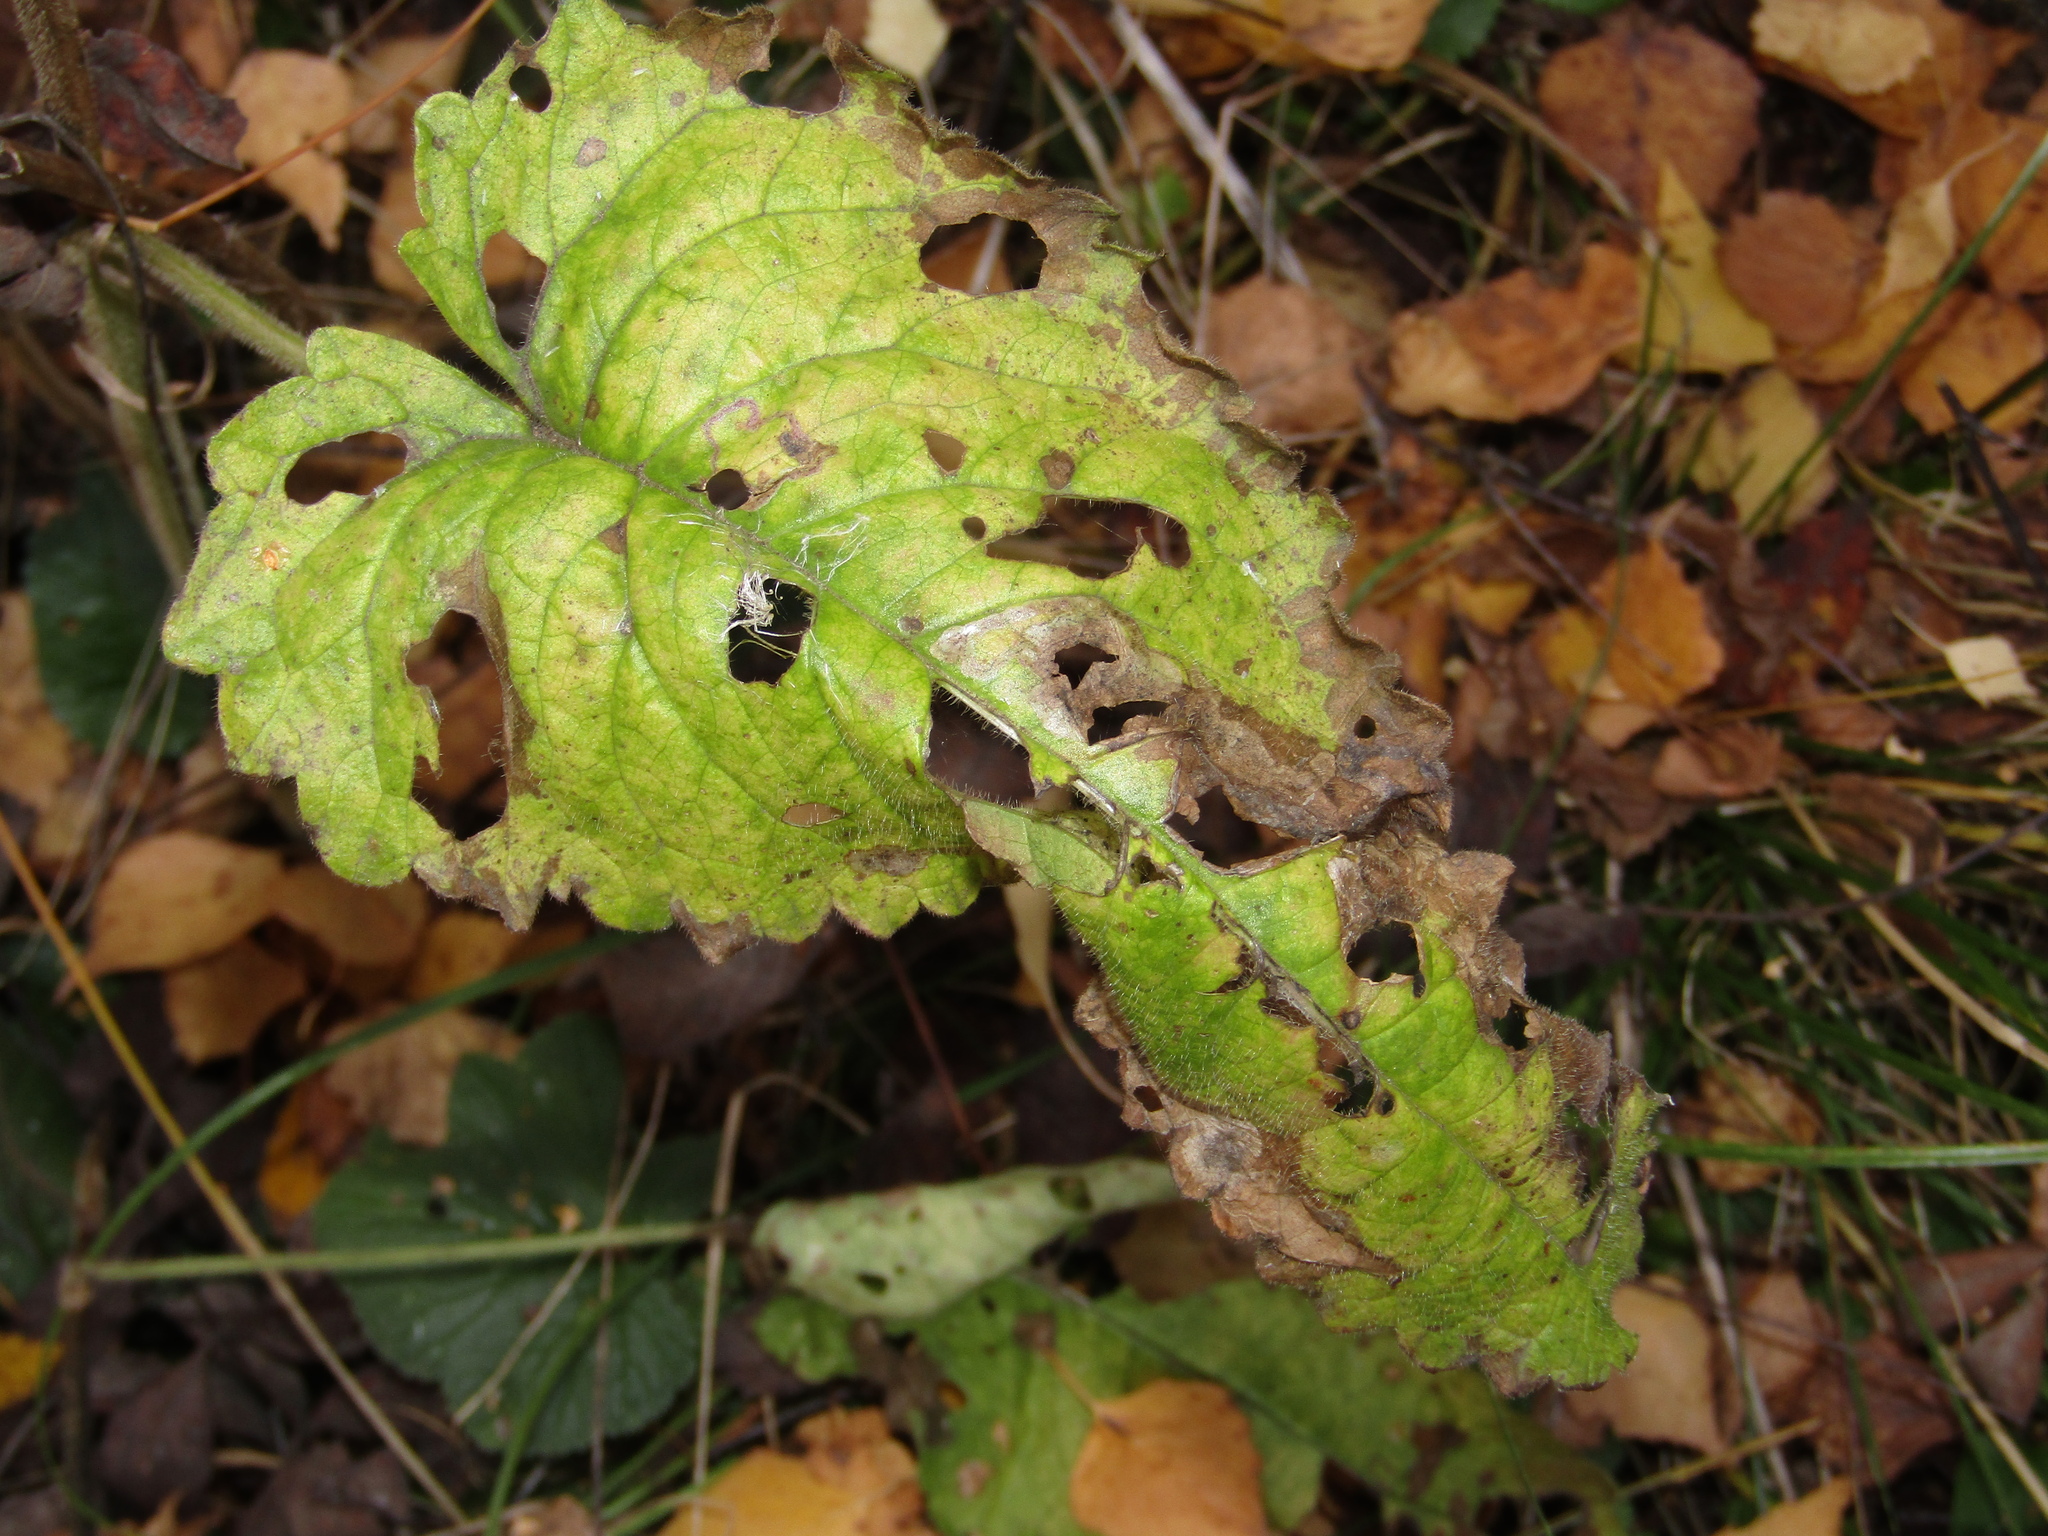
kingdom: Plantae
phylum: Tracheophyta
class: Magnoliopsida
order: Lamiales
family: Lamiaceae
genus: Betonica
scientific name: Betonica officinalis
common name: Bishop's-wort
